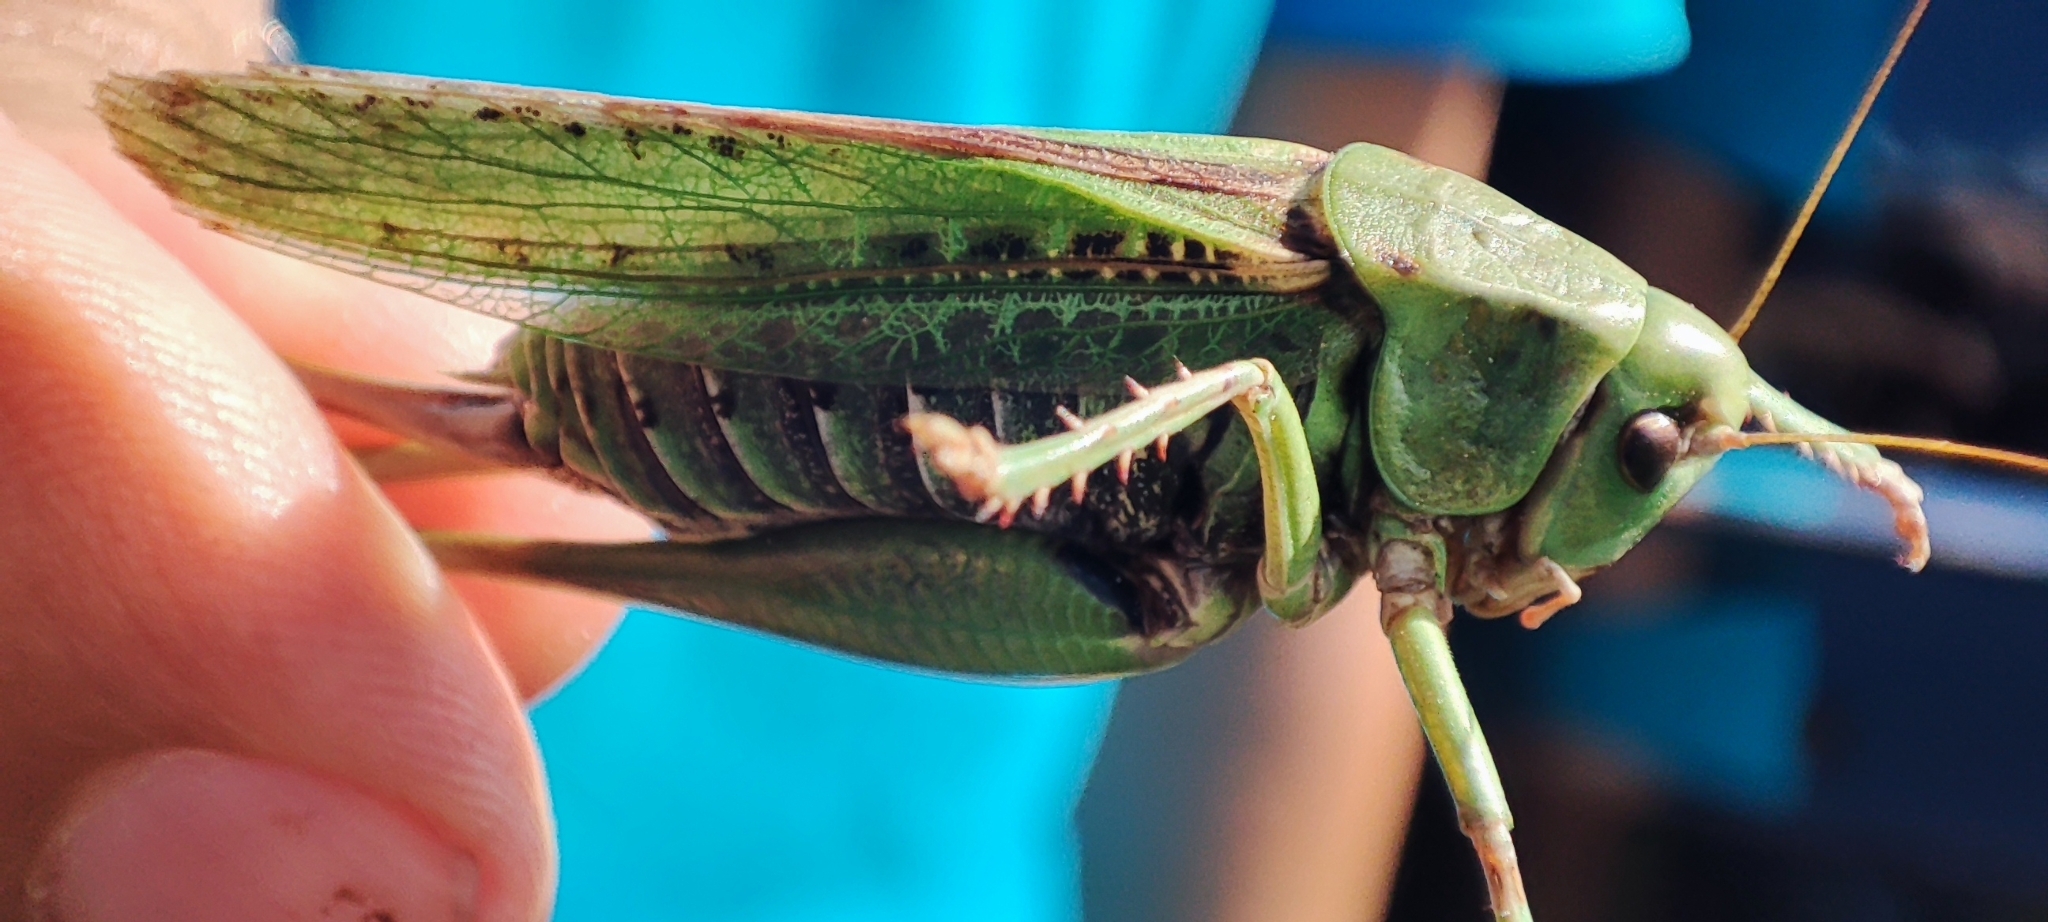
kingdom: Animalia
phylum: Arthropoda
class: Insecta
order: Orthoptera
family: Tettigoniidae
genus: Decticus
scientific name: Decticus verrucivorus
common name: Wart-biter
